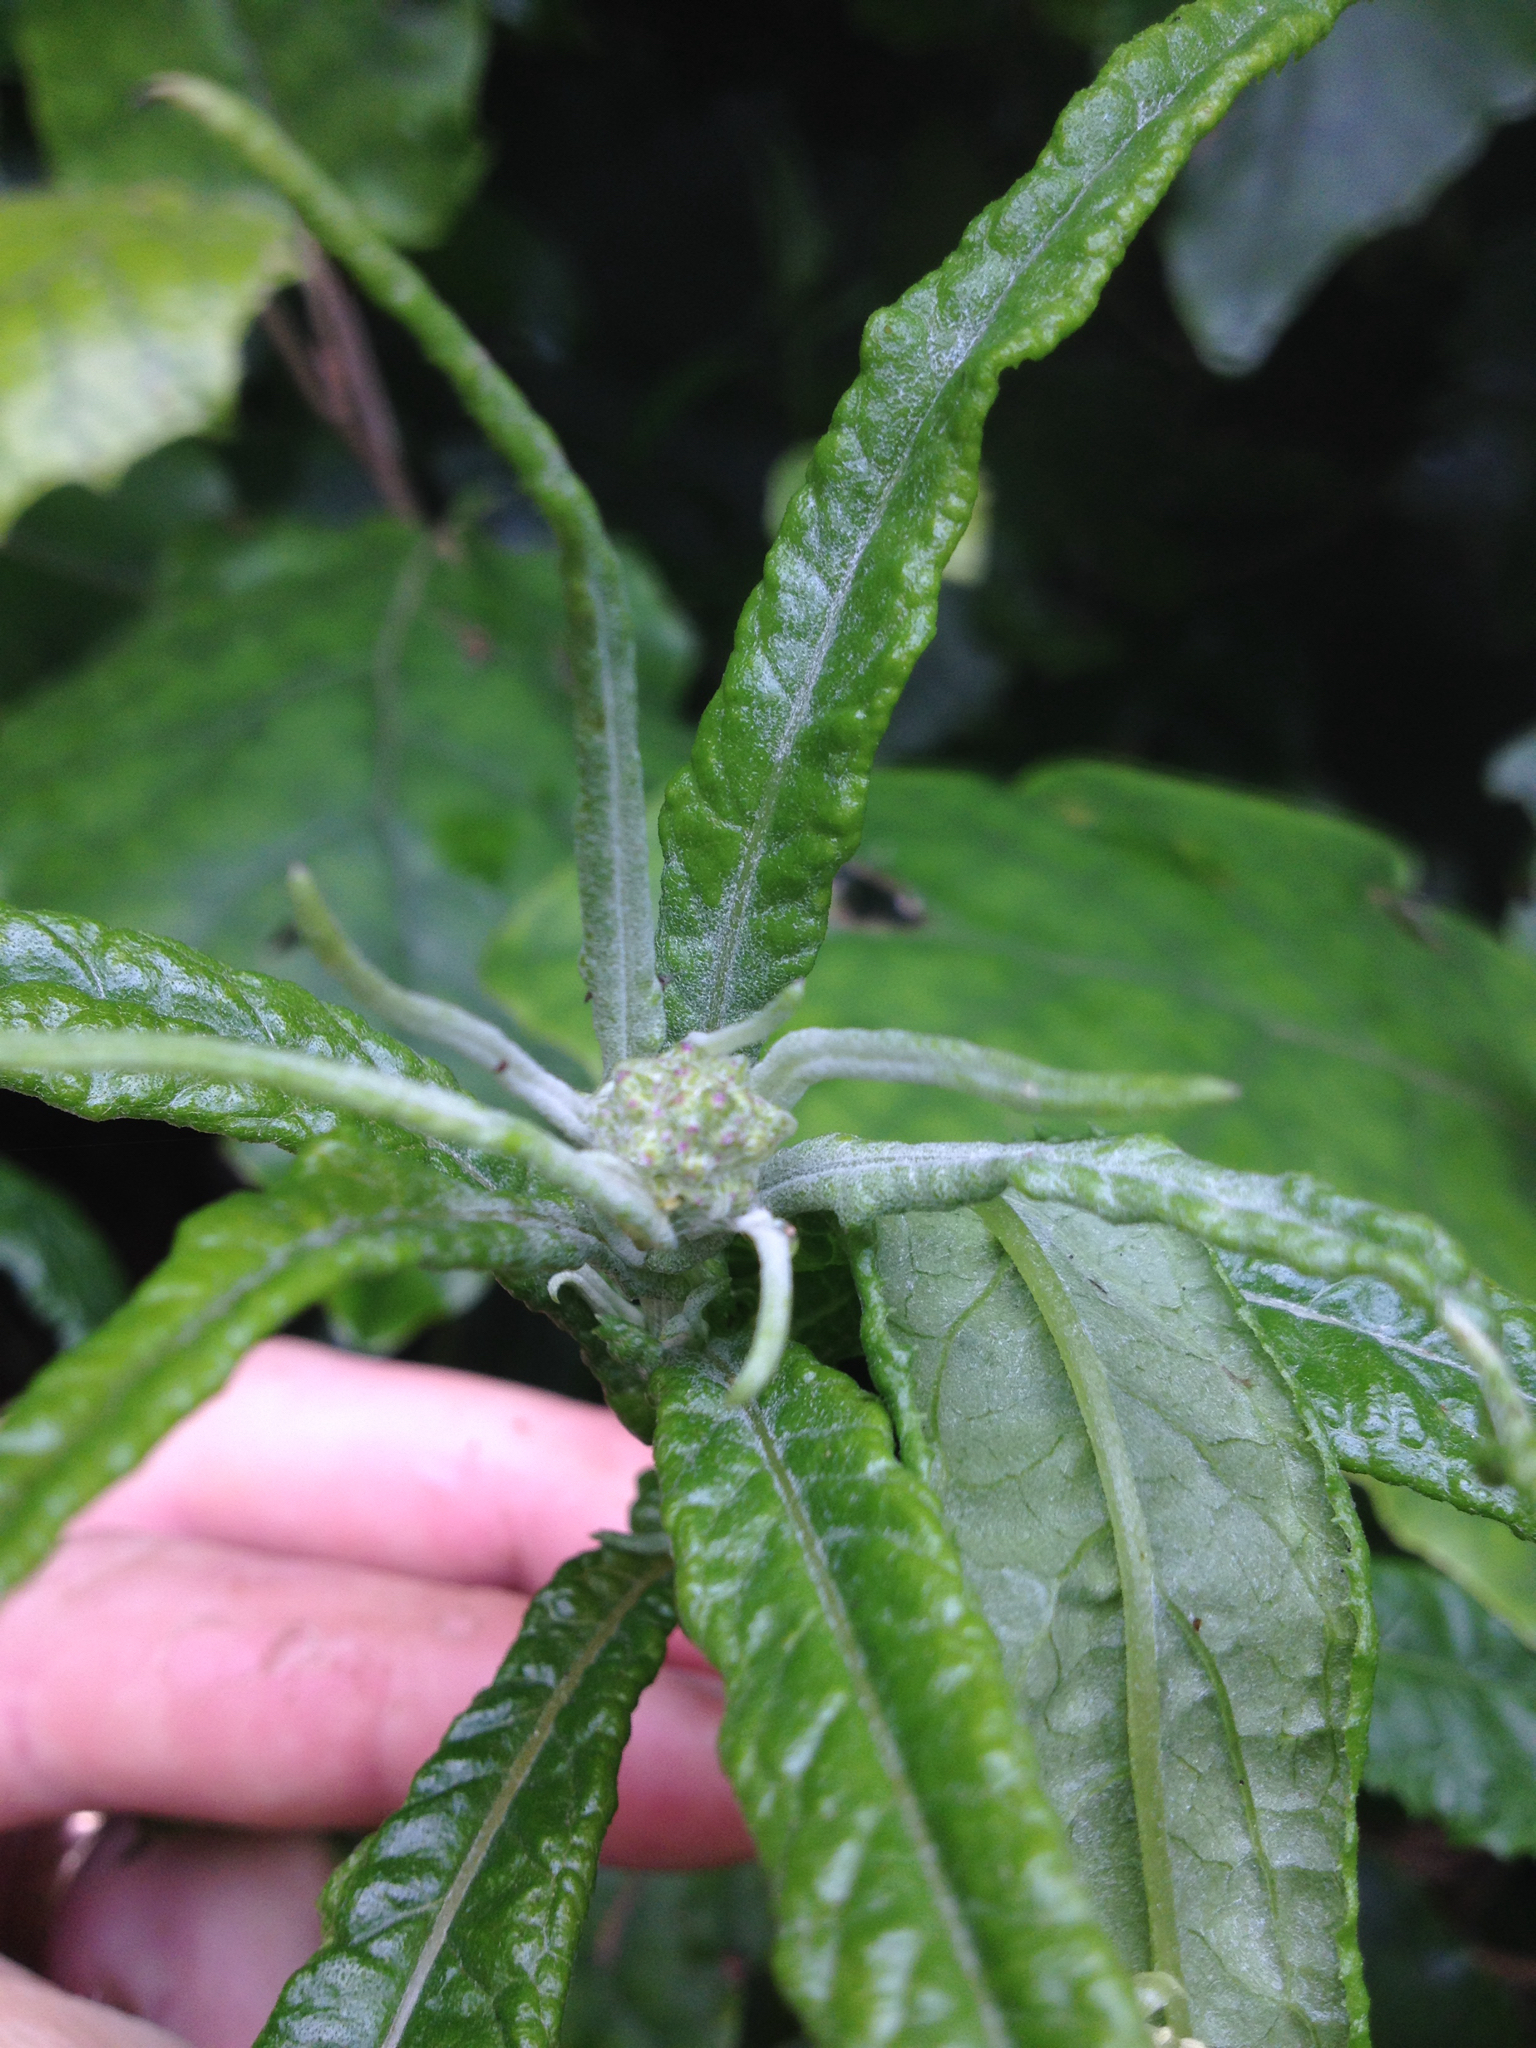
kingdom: Plantae
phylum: Tracheophyta
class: Magnoliopsida
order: Asterales
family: Asteraceae
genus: Senecio
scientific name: Senecio minimus
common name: Toothed fireweed
